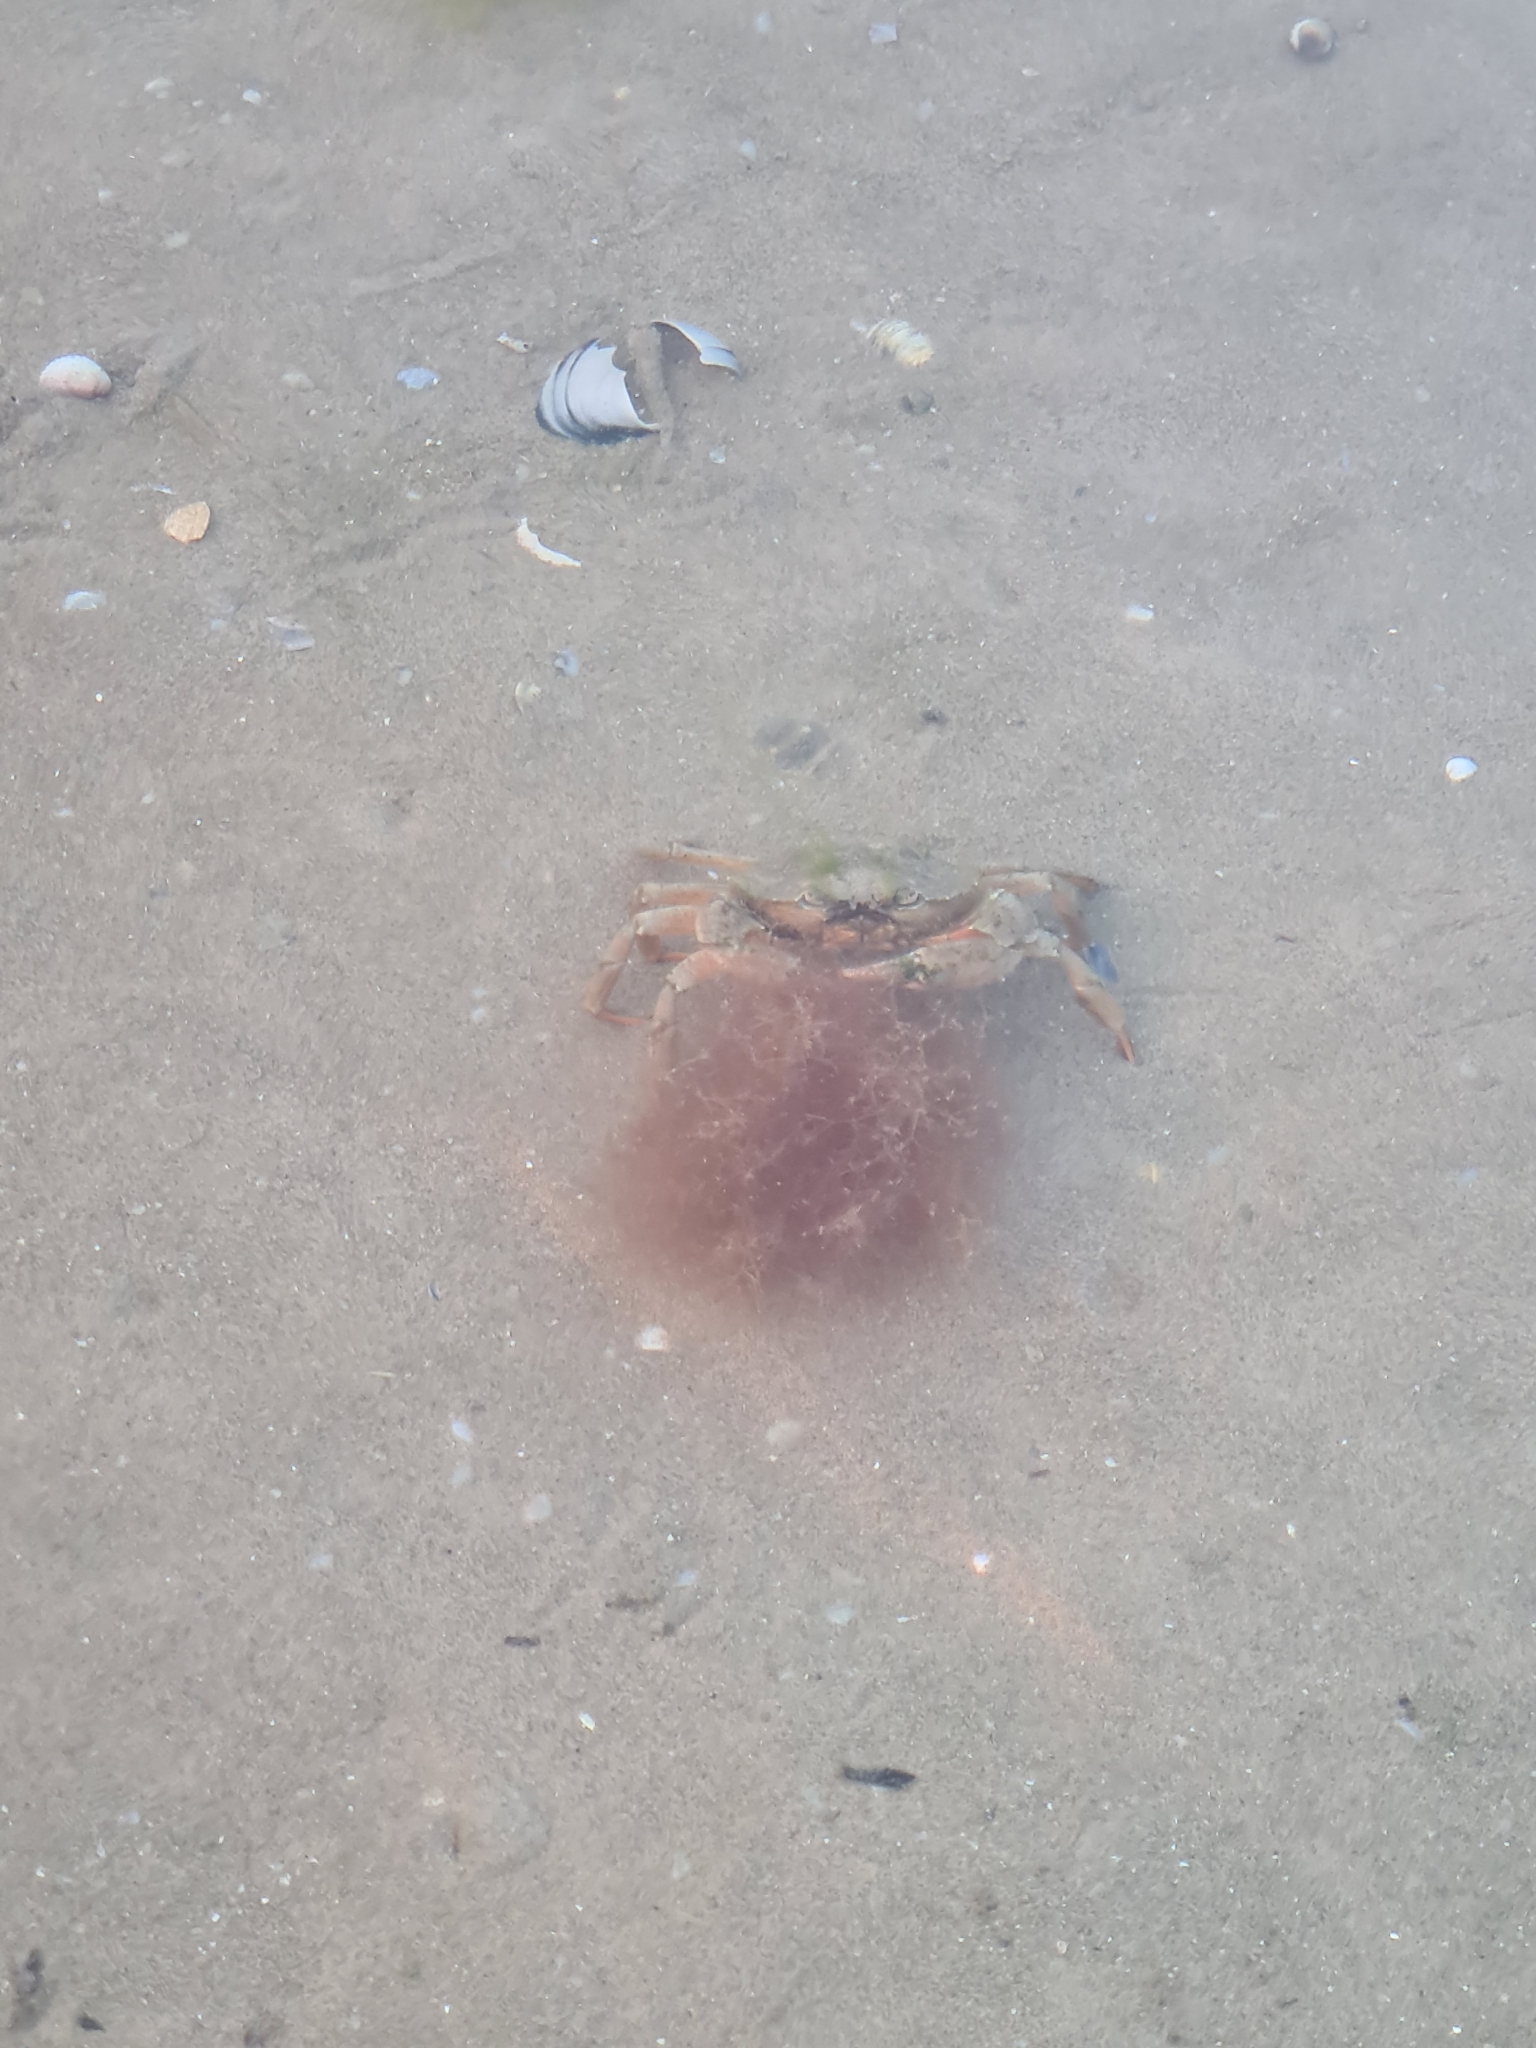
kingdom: Animalia
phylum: Arthropoda
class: Malacostraca
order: Decapoda
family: Carcinidae
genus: Carcinus
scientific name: Carcinus aestuarii
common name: Mediterranean green crab
